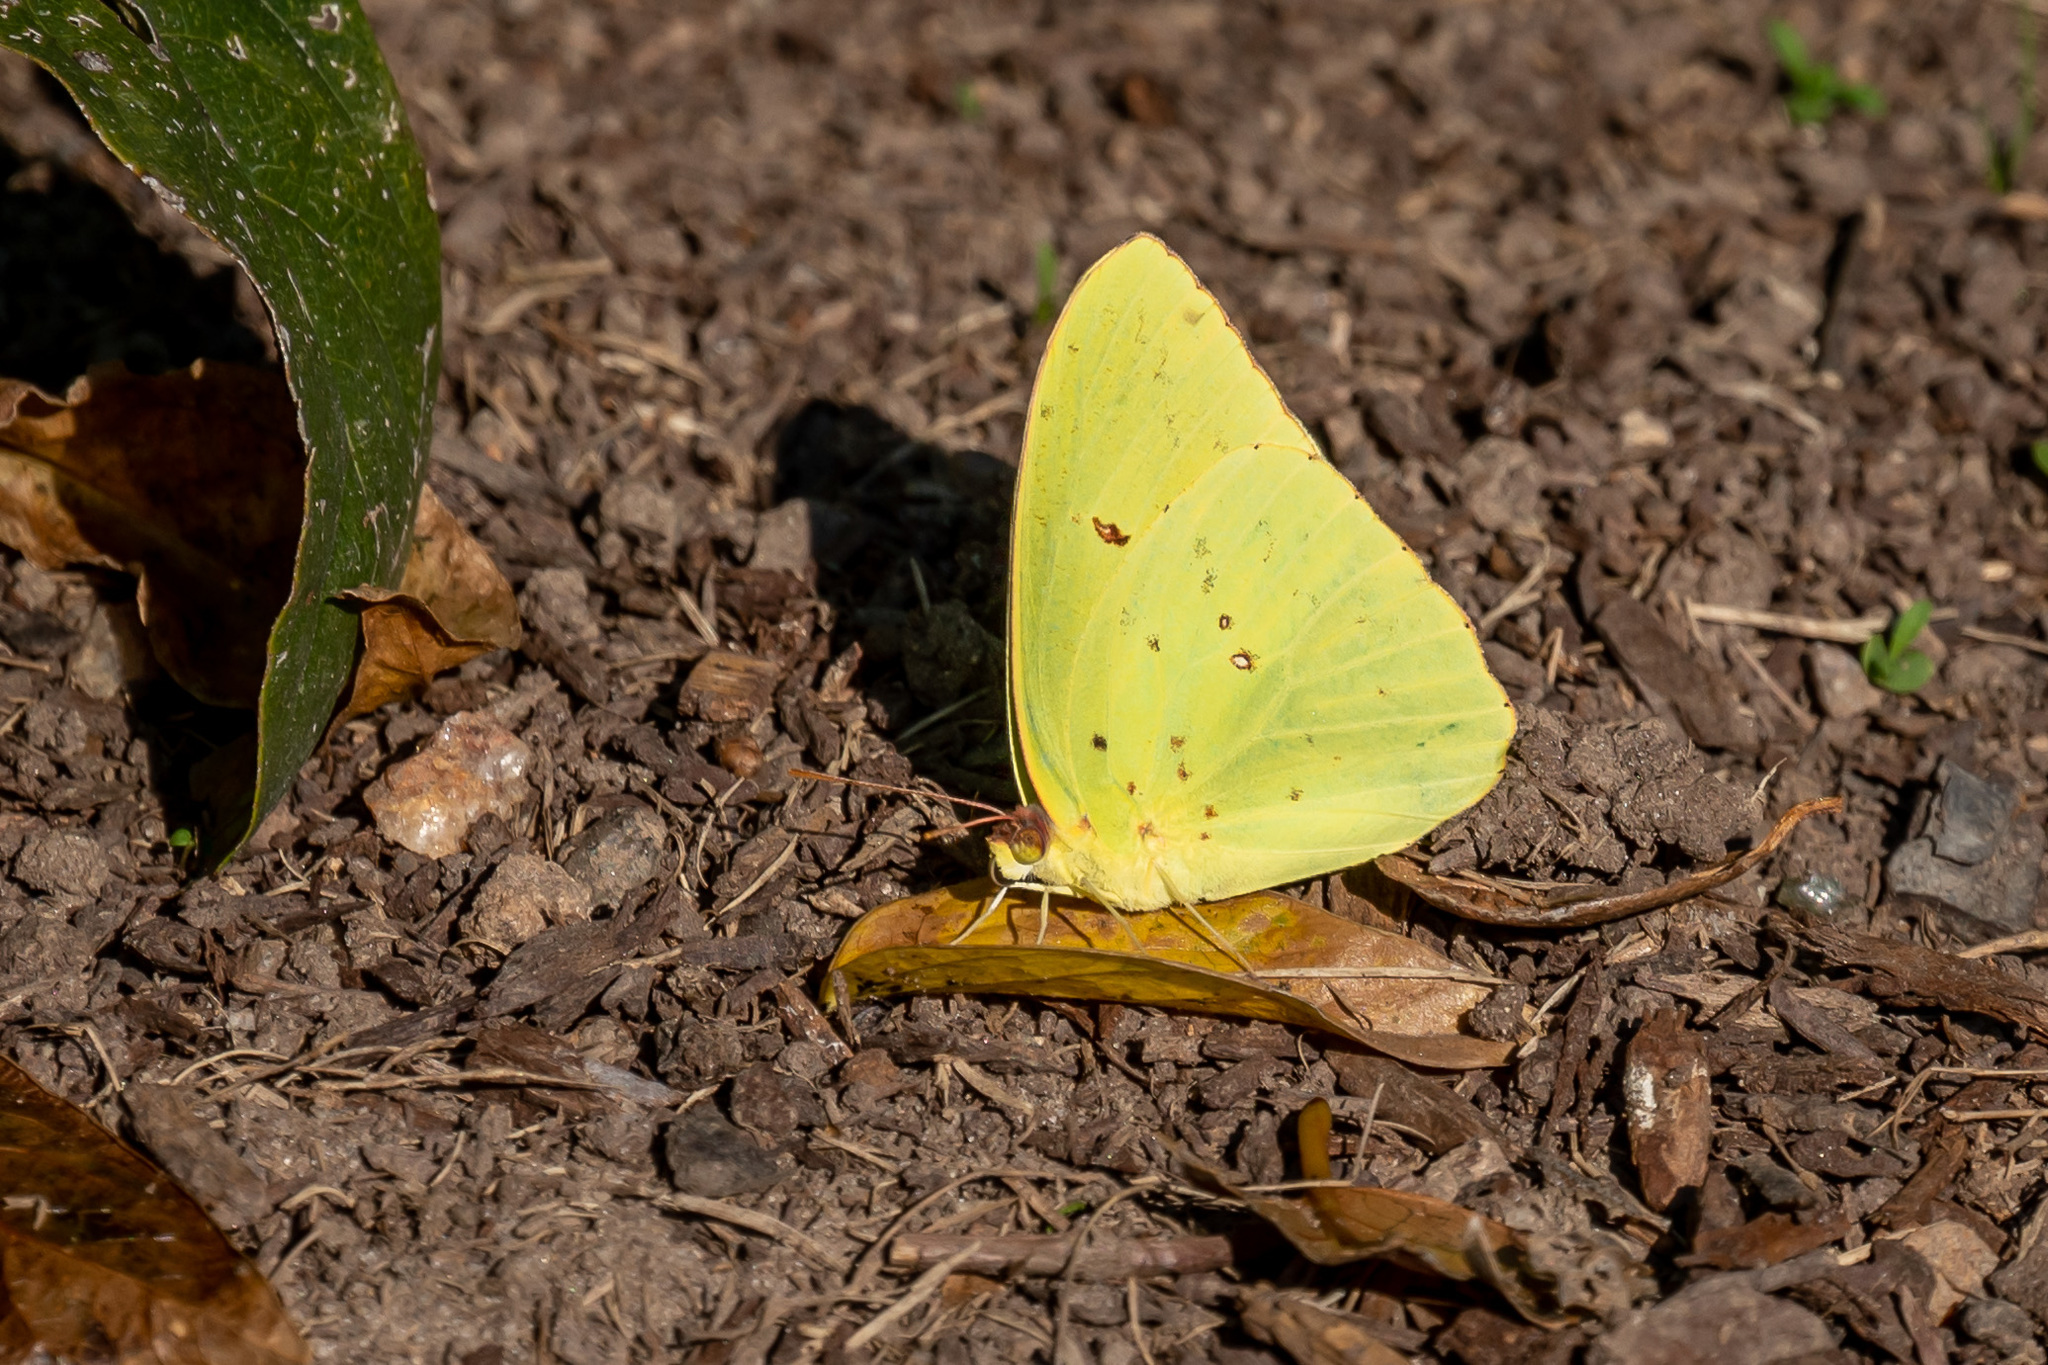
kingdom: Animalia
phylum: Arthropoda
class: Insecta
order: Lepidoptera
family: Pieridae
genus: Phoebis
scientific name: Phoebis sennae
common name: Cloudless sulphur
